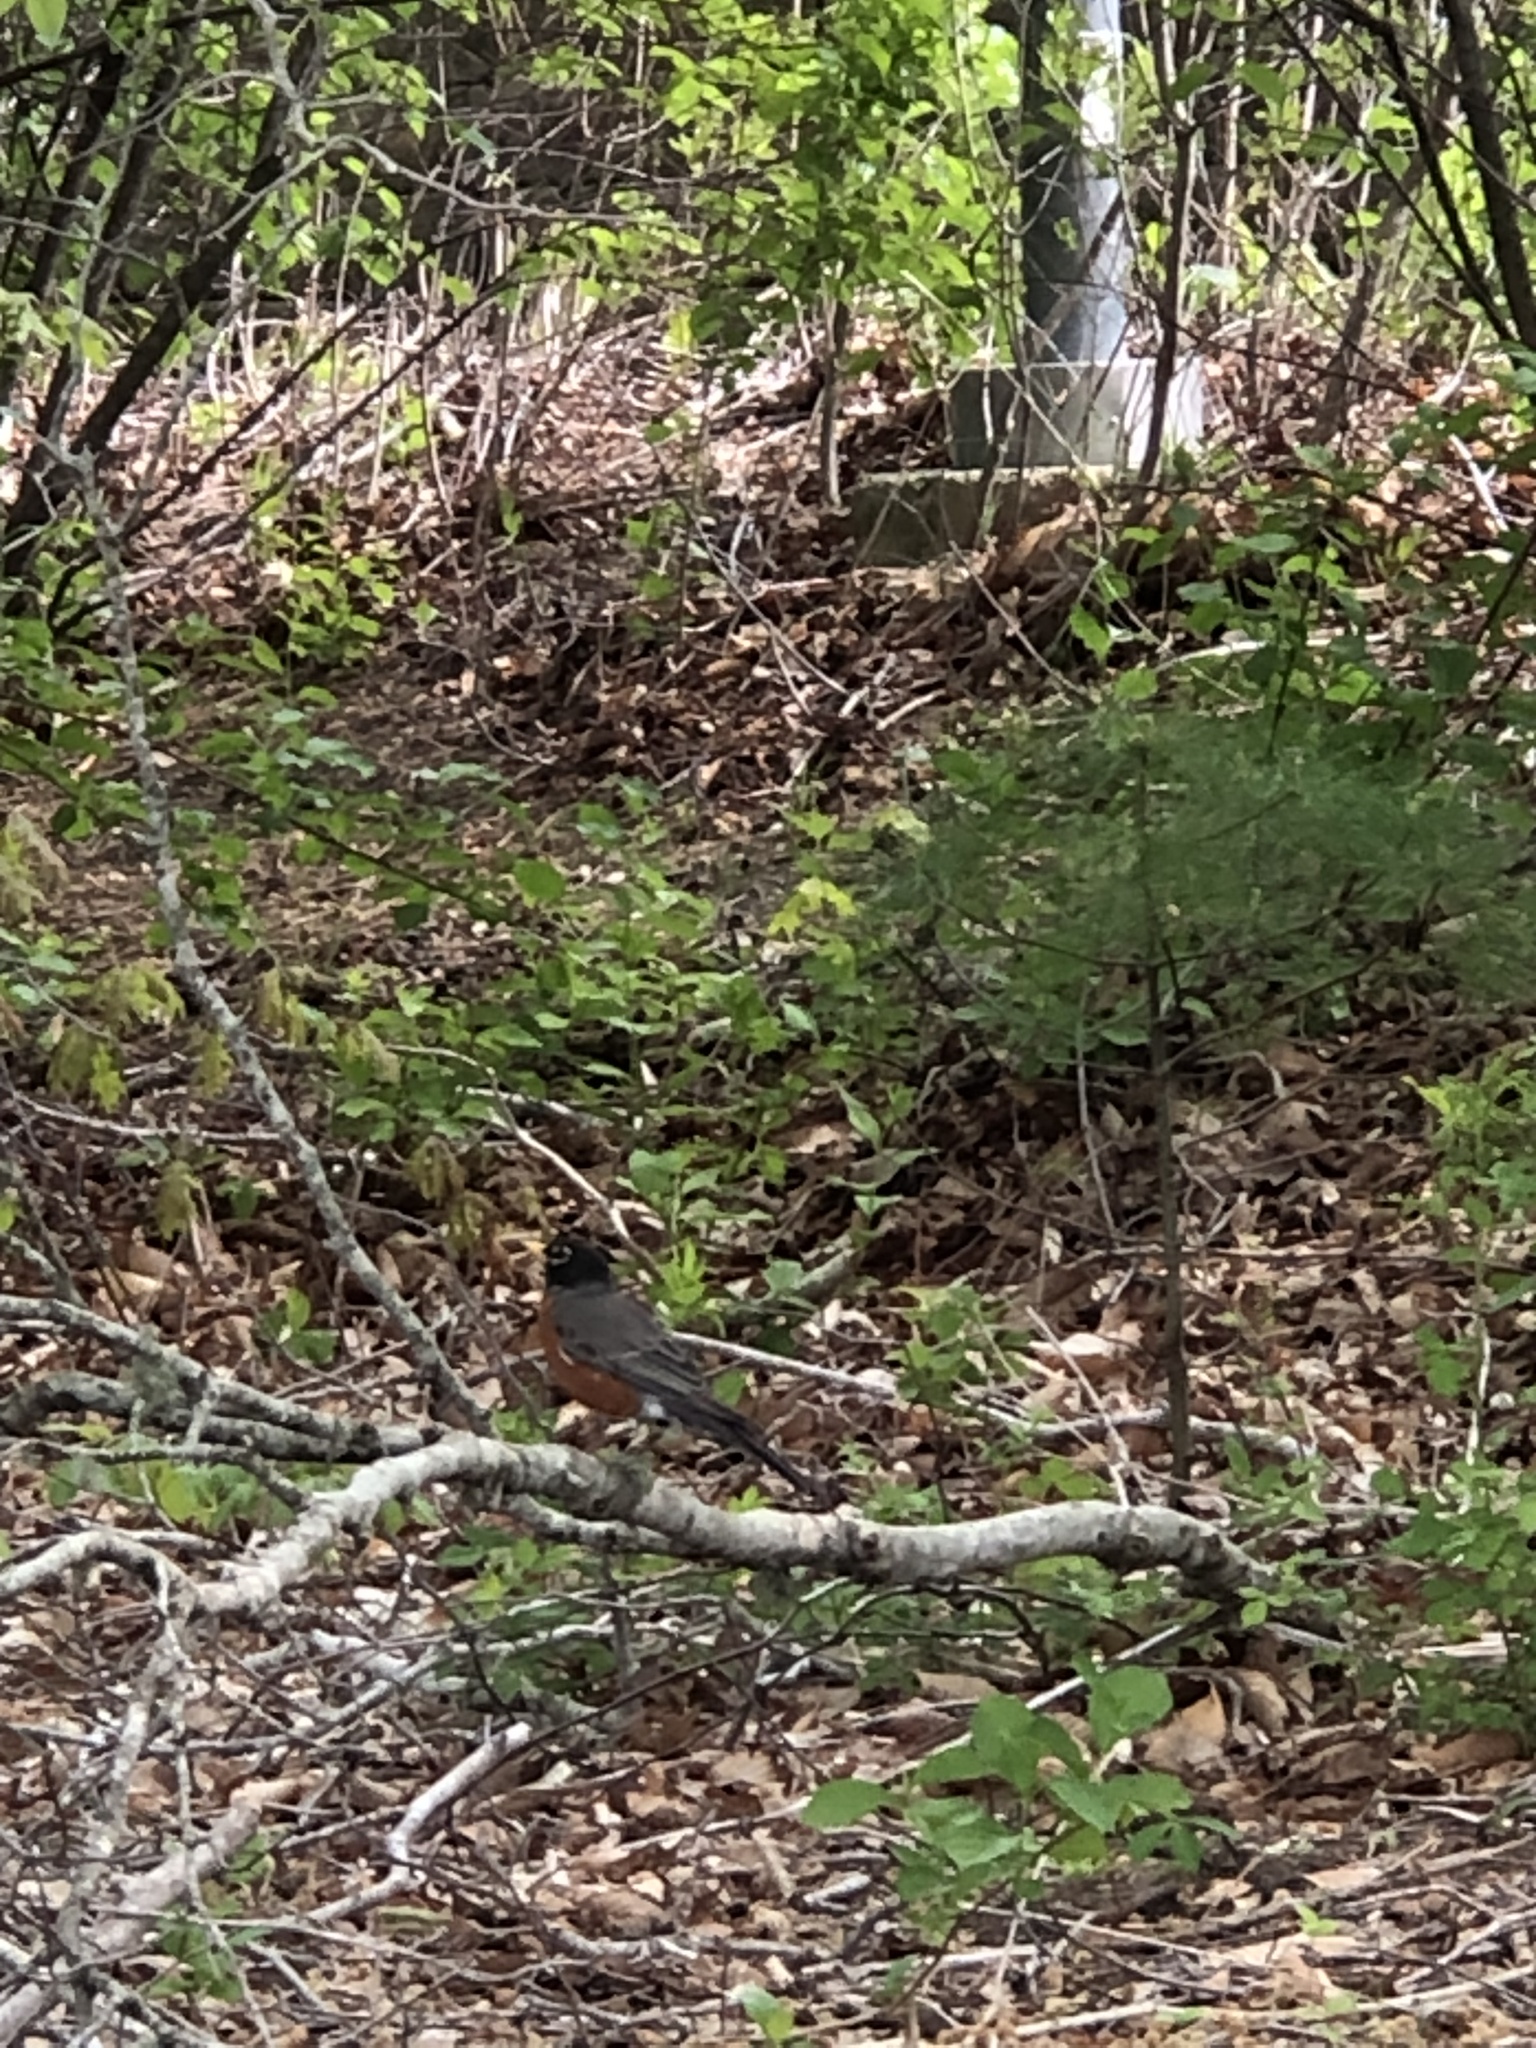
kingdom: Animalia
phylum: Chordata
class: Aves
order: Passeriformes
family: Turdidae
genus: Turdus
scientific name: Turdus migratorius
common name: American robin
